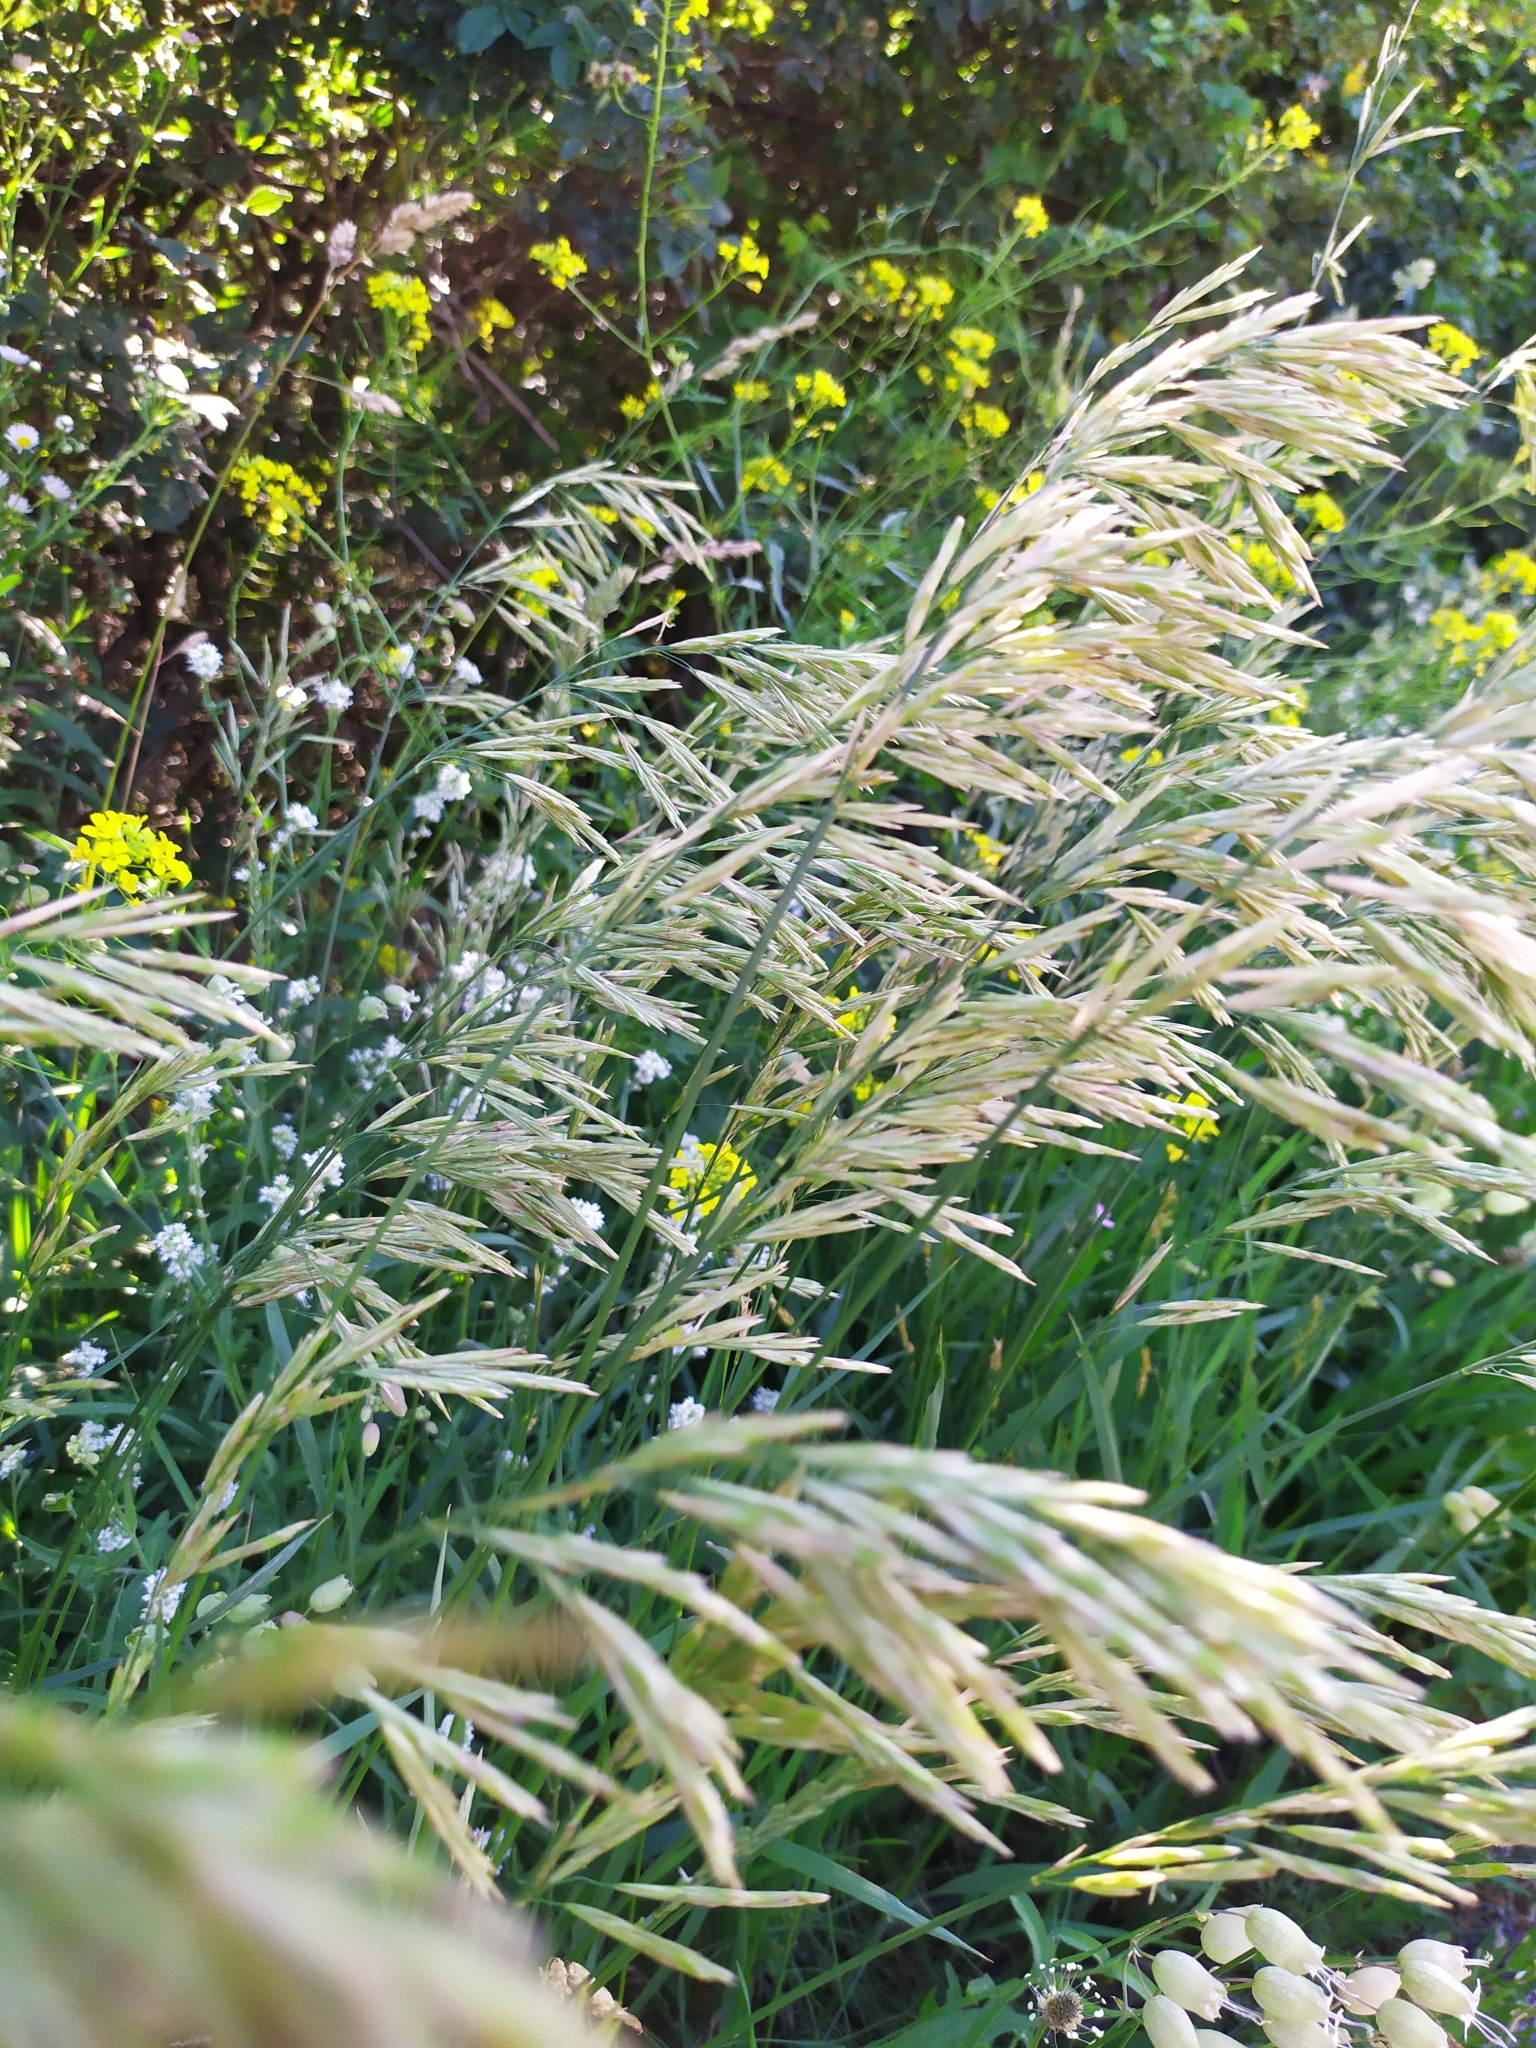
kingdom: Plantae
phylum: Tracheophyta
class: Liliopsida
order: Poales
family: Poaceae
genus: Bromus
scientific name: Bromus inermis
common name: Smooth brome
